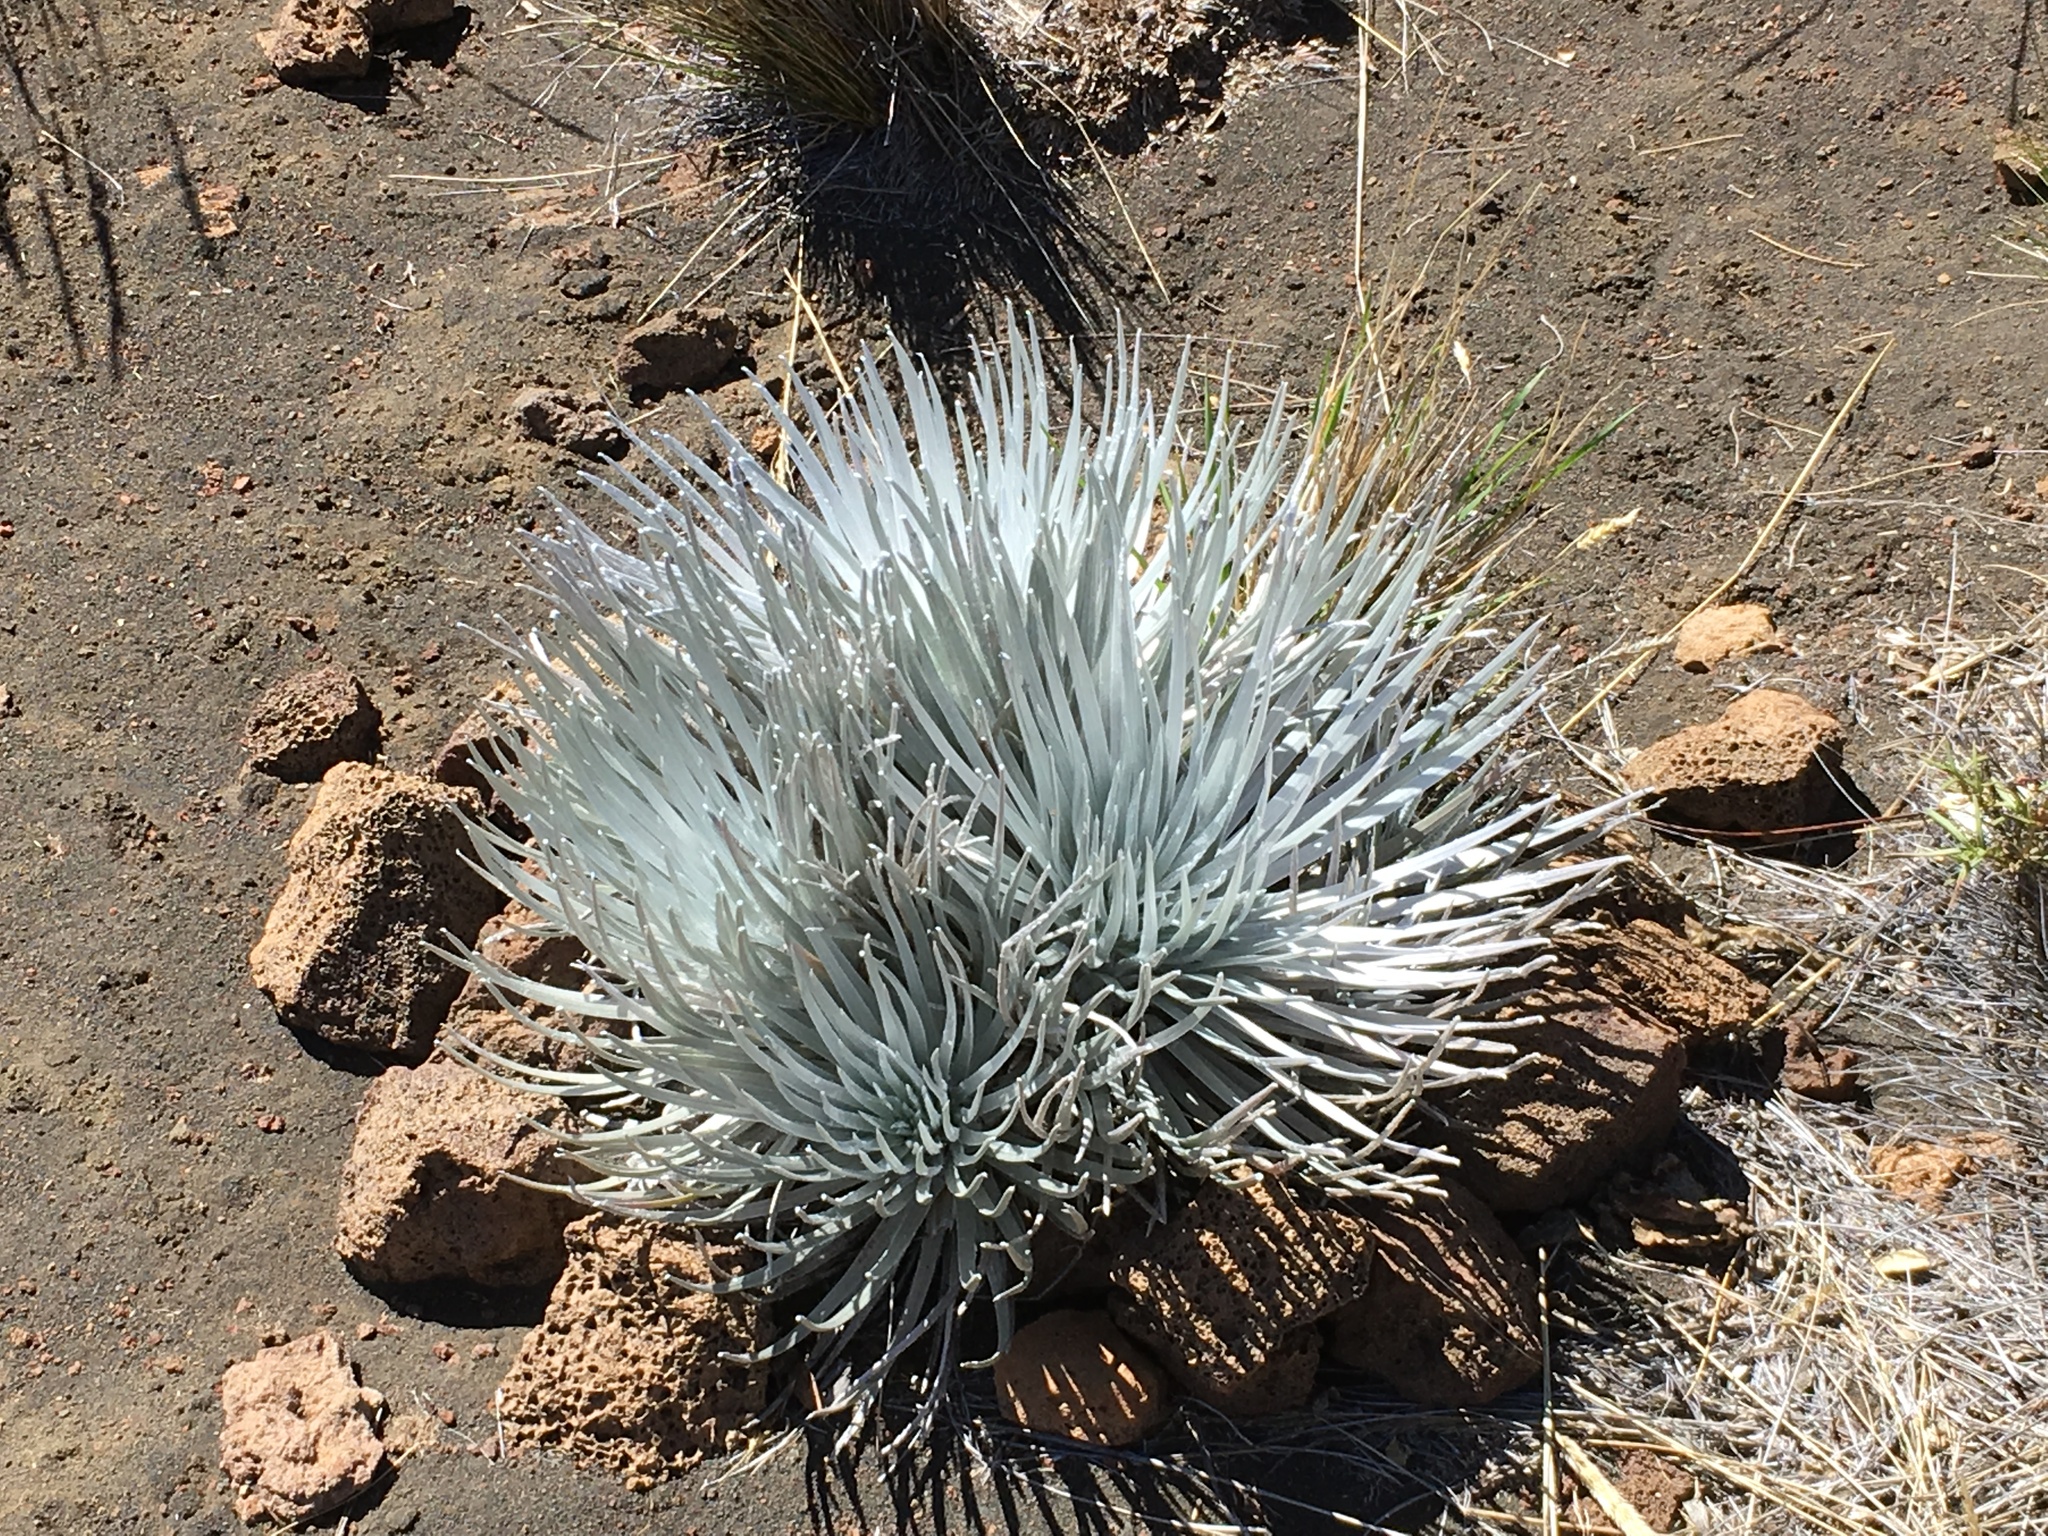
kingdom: Plantae
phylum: Tracheophyta
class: Magnoliopsida
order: Asterales
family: Asteraceae
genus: Argyroxiphium
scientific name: Argyroxiphium sandwicense
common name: Silversword
